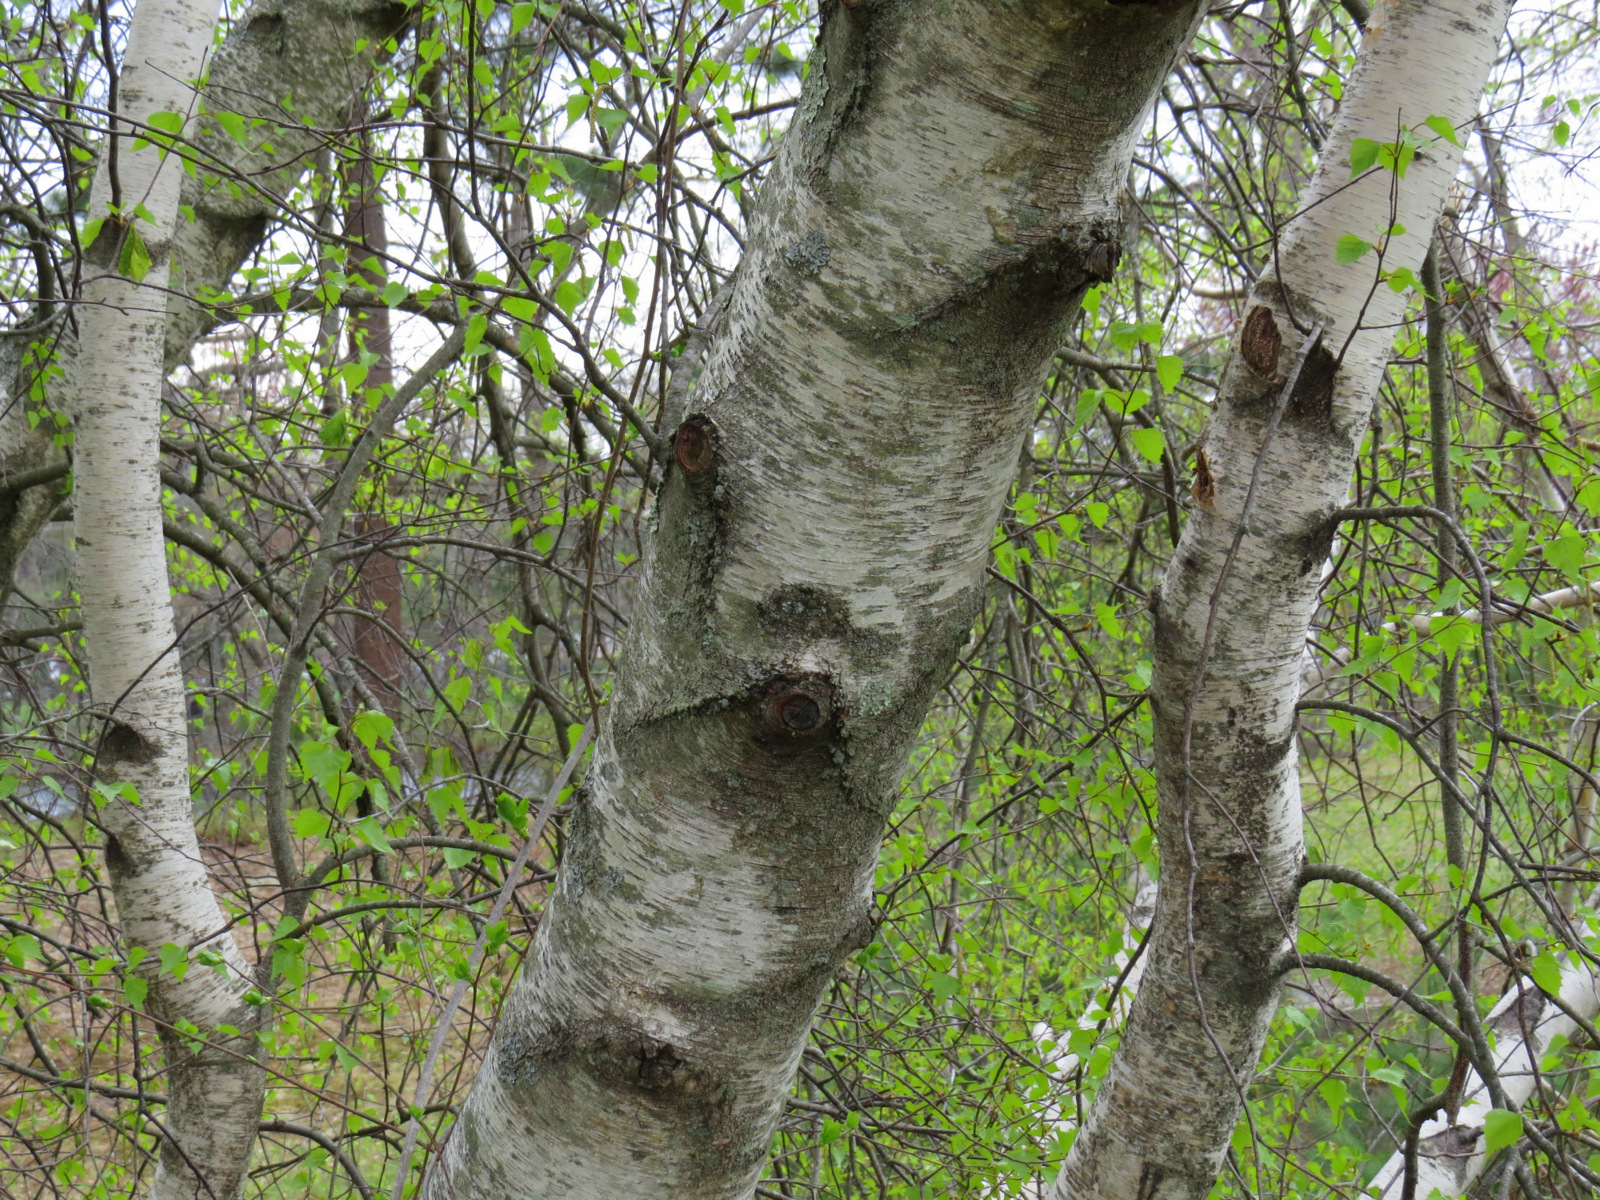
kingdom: Plantae
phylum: Tracheophyta
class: Magnoliopsida
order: Fagales
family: Betulaceae
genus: Betula
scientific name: Betula populifolia
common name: Fire birch
